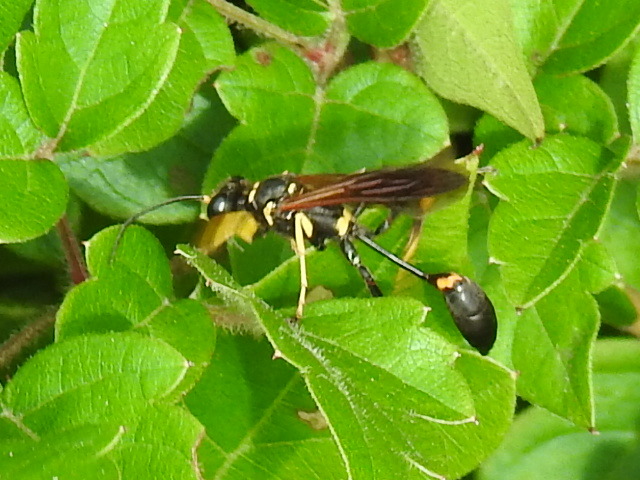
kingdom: Animalia
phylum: Arthropoda
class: Insecta
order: Hymenoptera
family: Sphecidae
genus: Sceliphron
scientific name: Sceliphron caementarium
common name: Mud dauber
